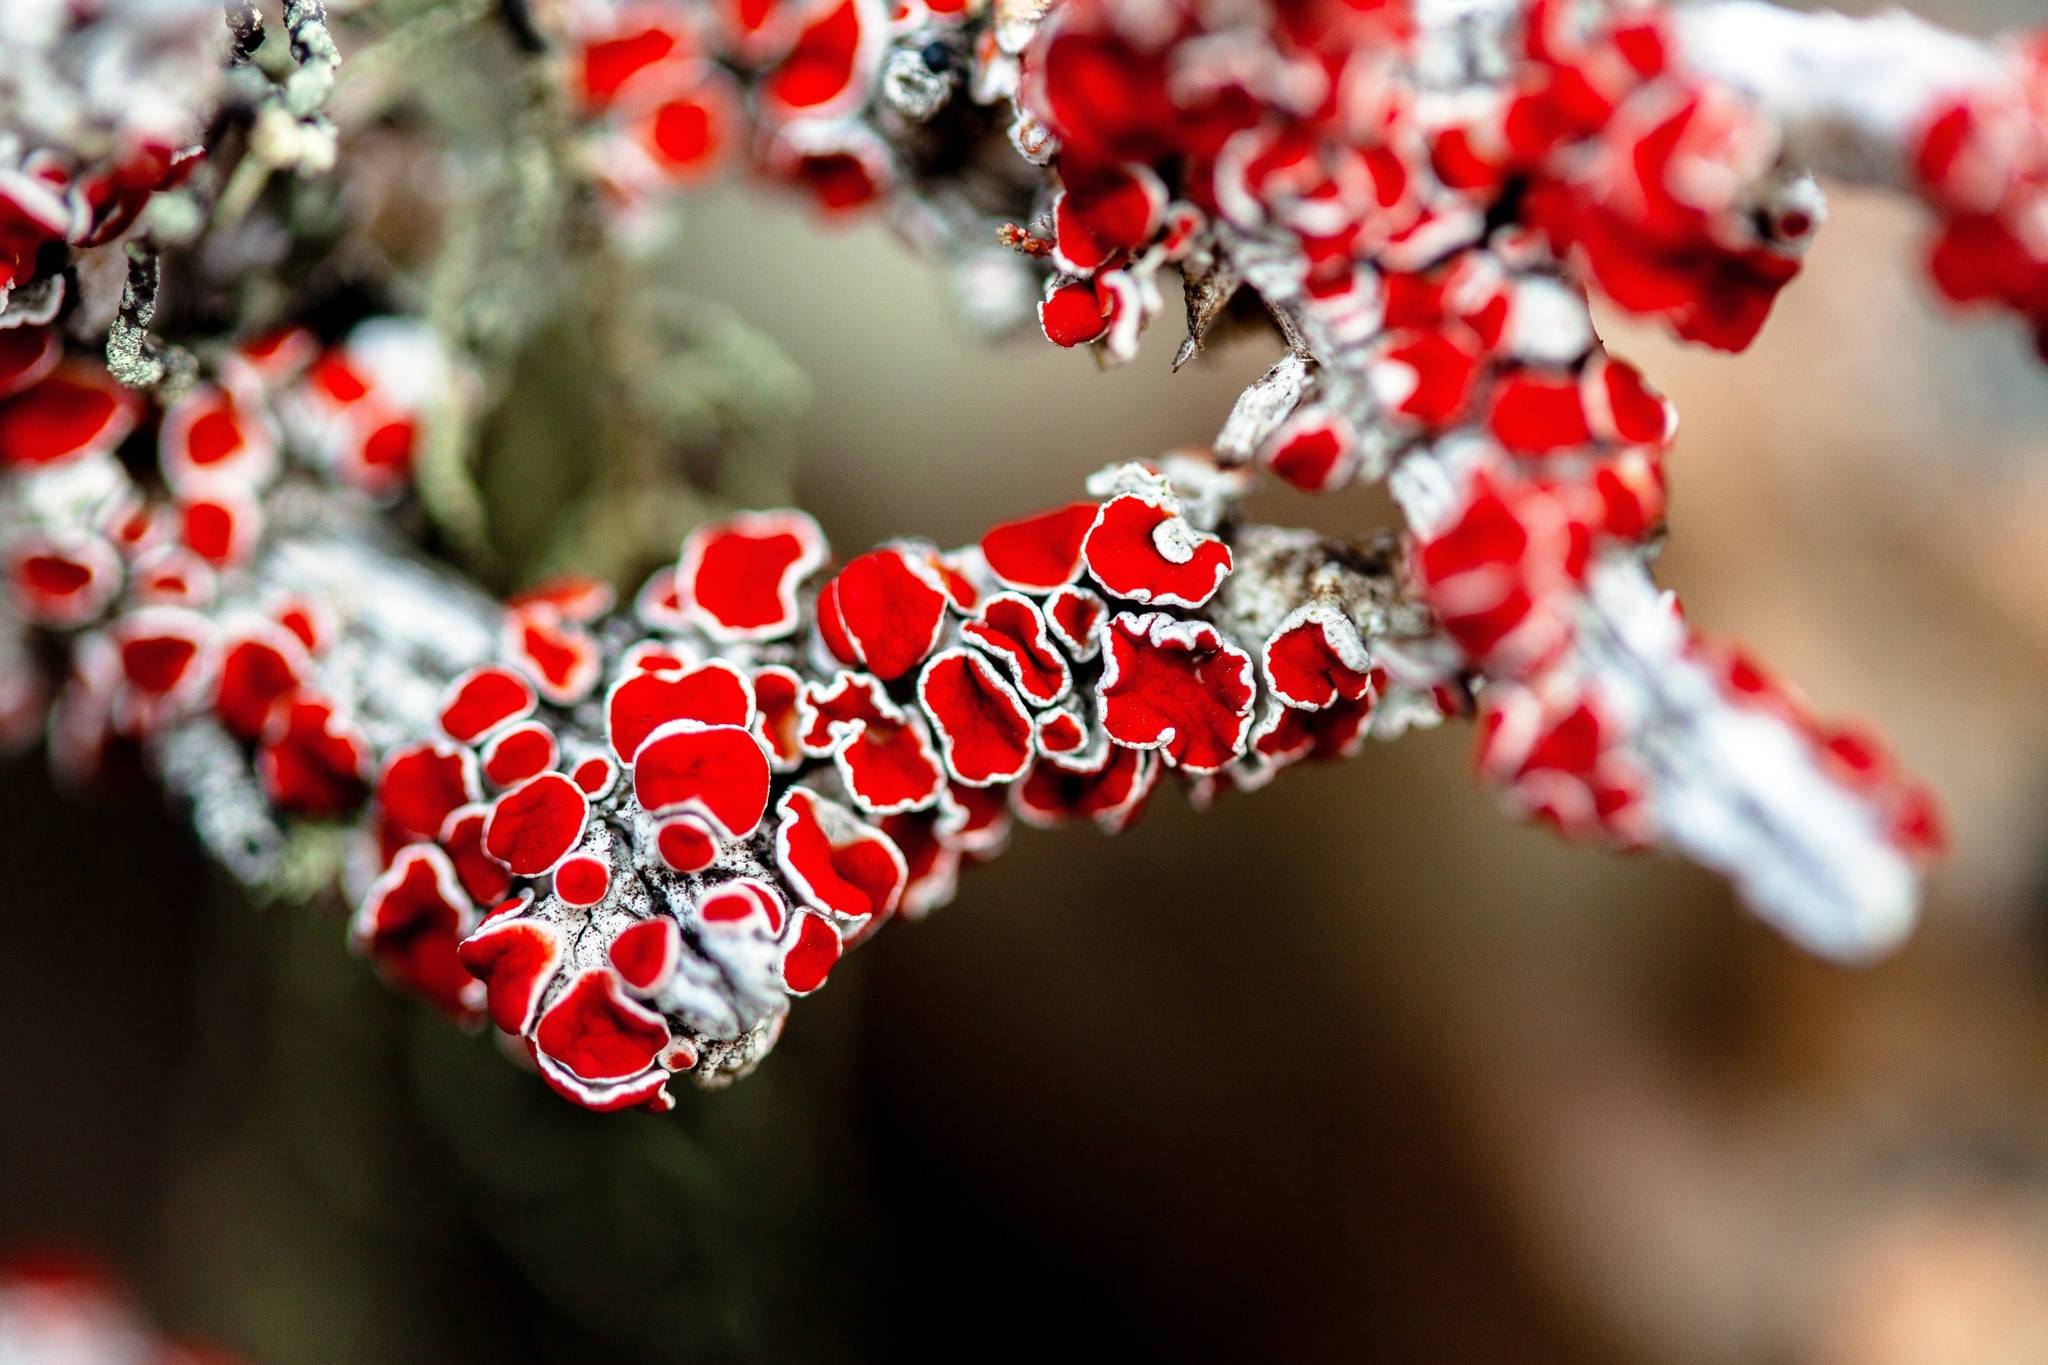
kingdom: Fungi
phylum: Ascomycota
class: Lecanoromycetes
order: Lecanorales
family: Haematommataceae
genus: Haematomma
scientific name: Haematomma
